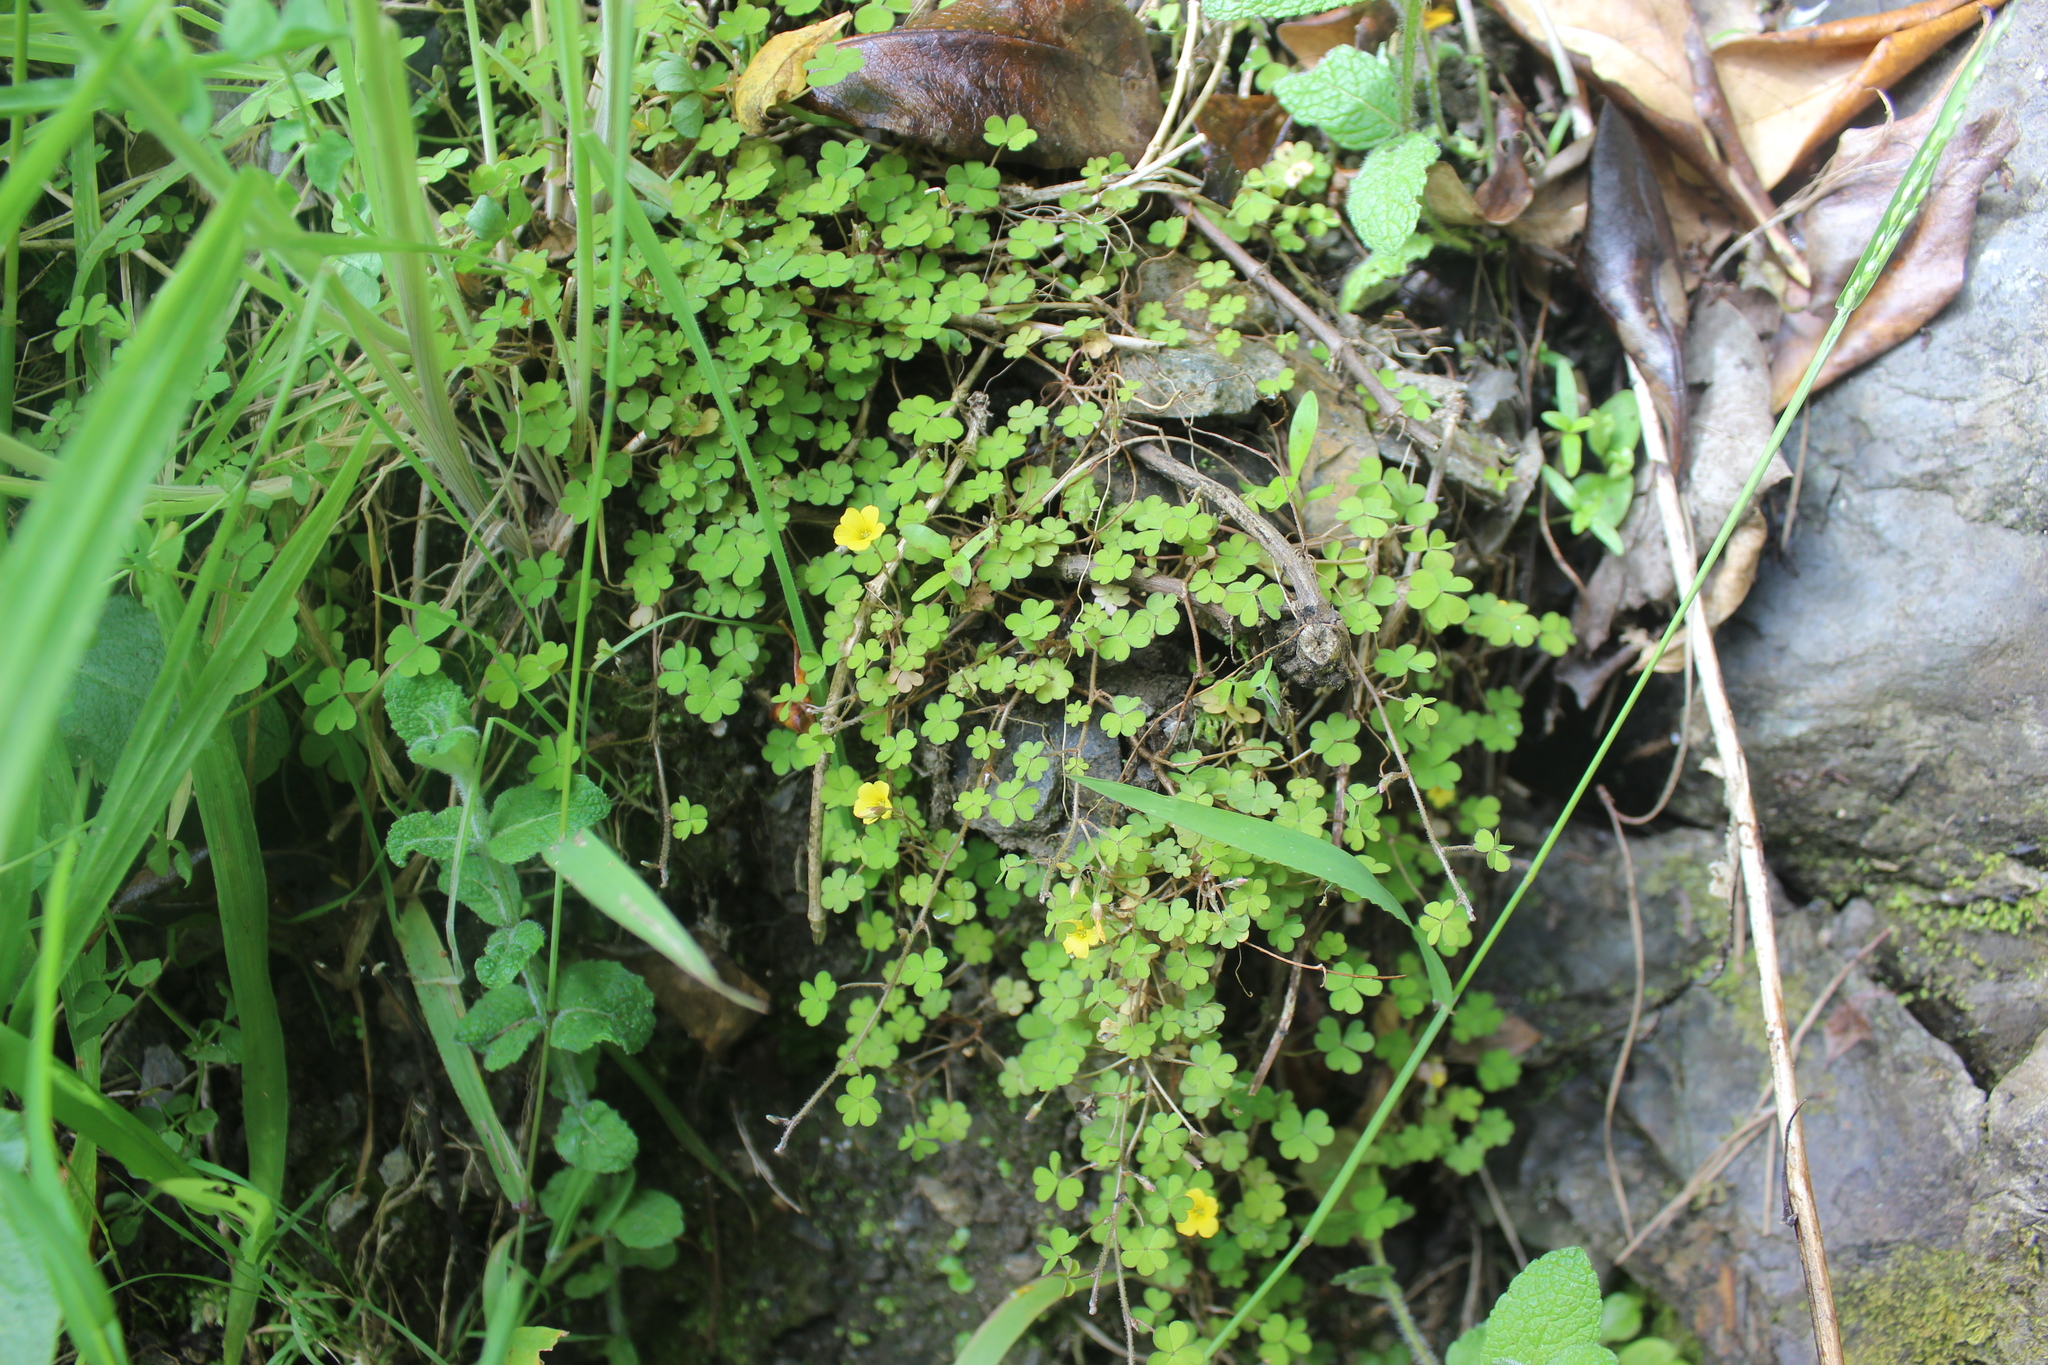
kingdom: Plantae
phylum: Tracheophyta
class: Magnoliopsida
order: Oxalidales
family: Oxalidaceae
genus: Oxalis
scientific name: Oxalis exilis
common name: Least yellow-sorrel
